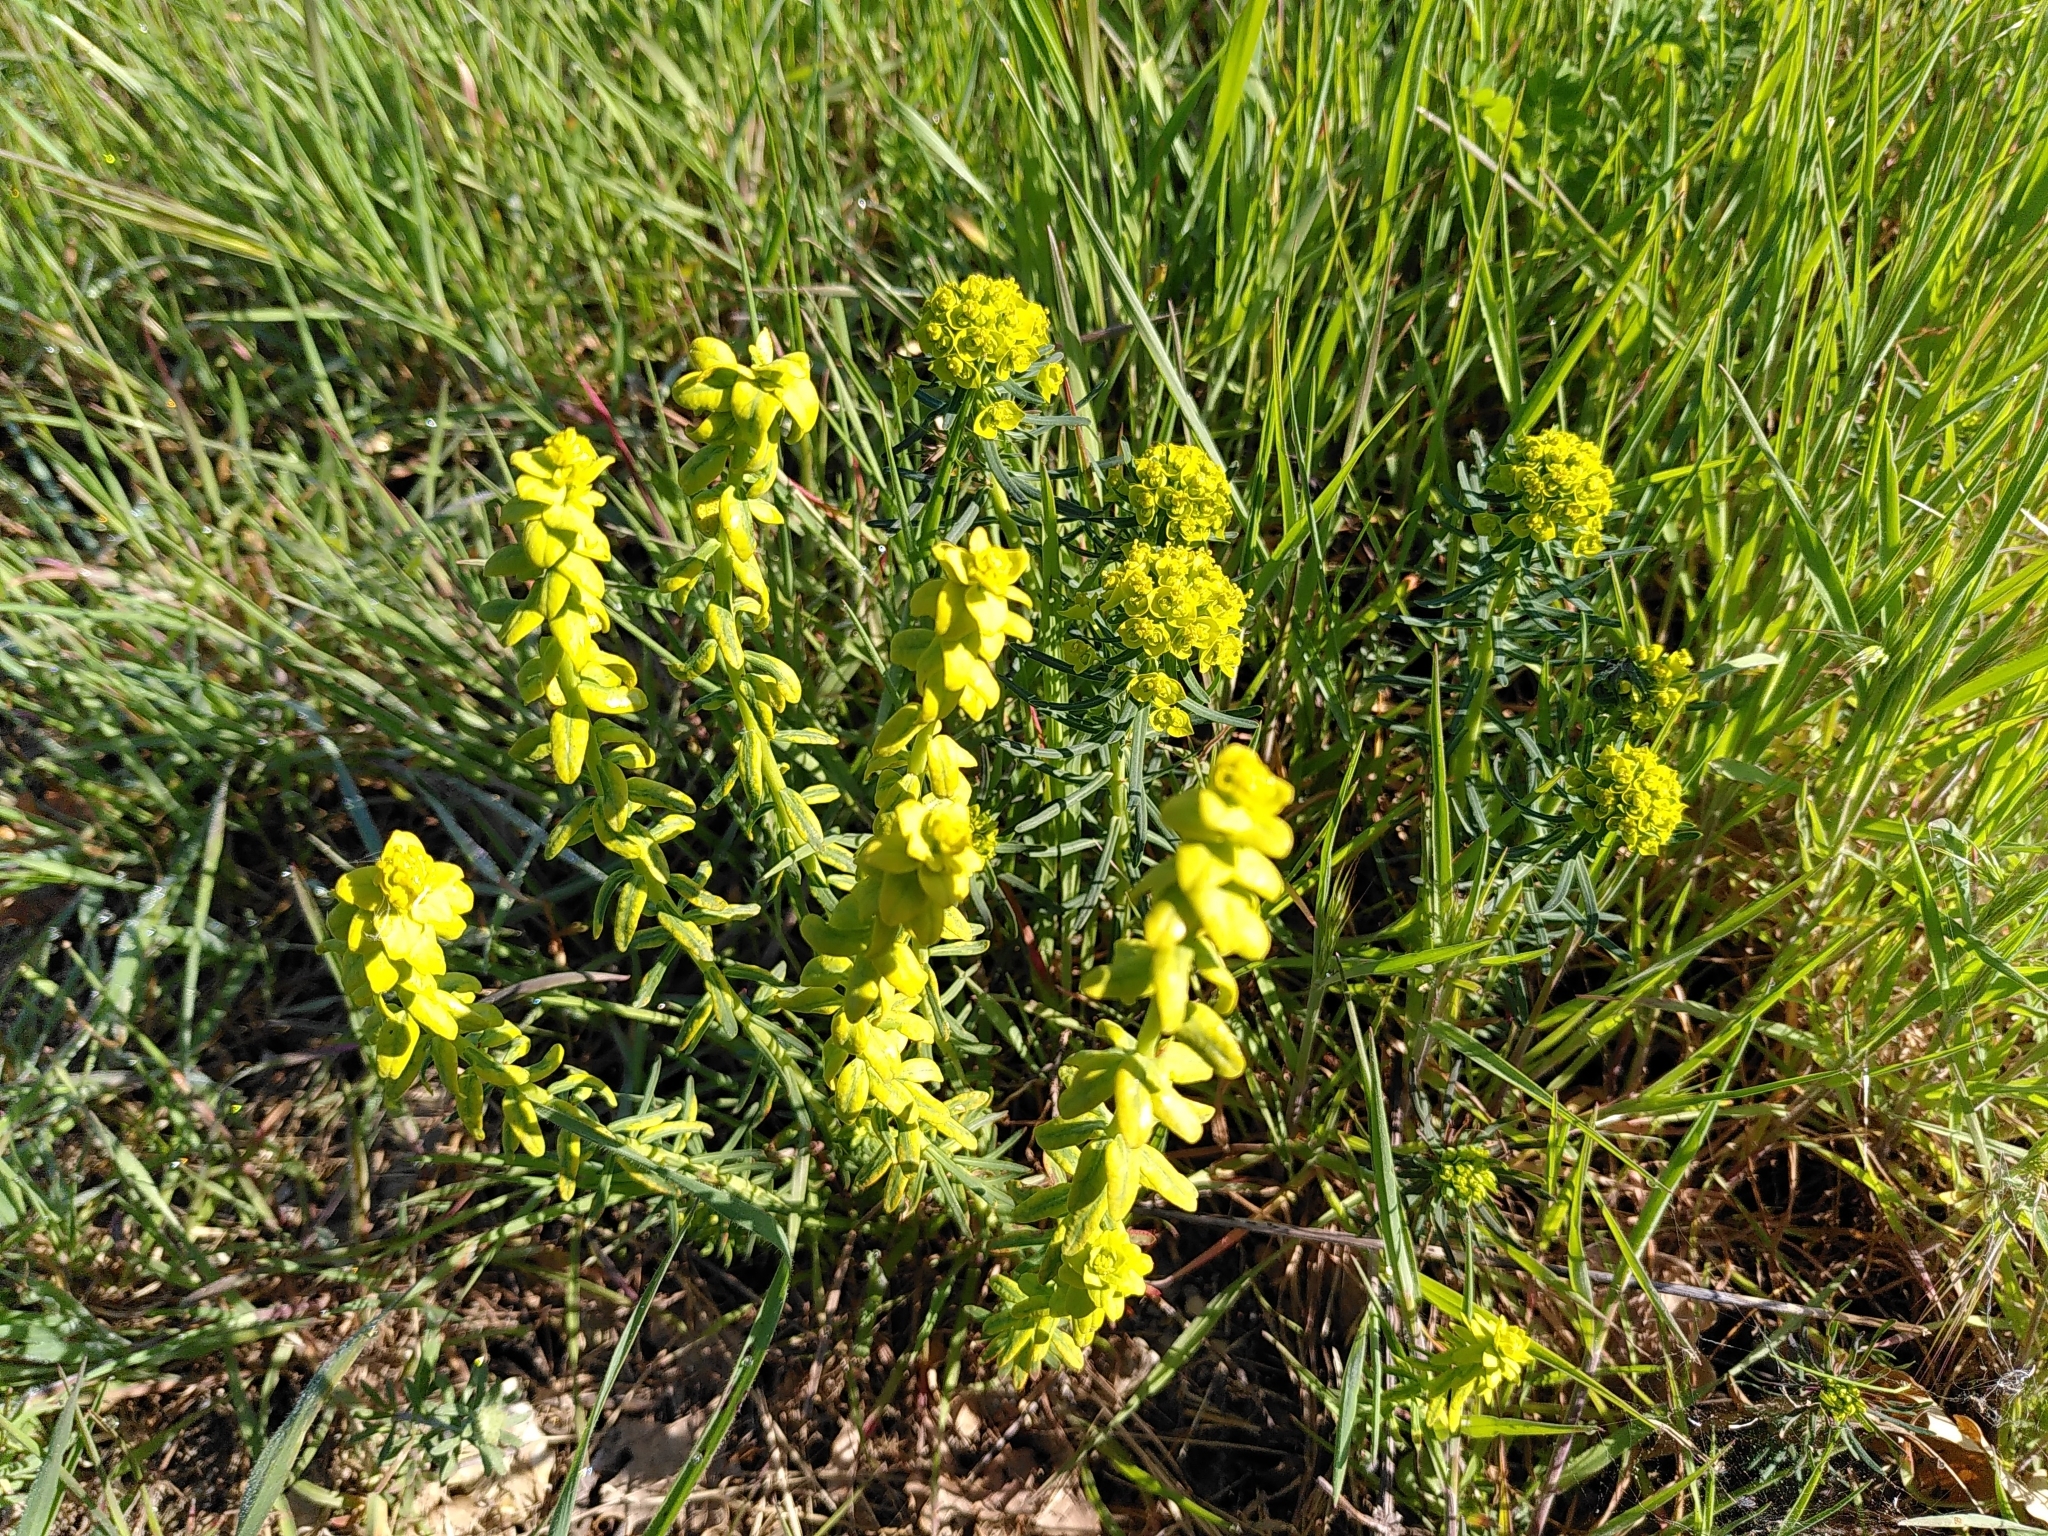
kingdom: Plantae
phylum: Tracheophyta
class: Magnoliopsida
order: Malpighiales
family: Euphorbiaceae
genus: Euphorbia
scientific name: Euphorbia cyparissias
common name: Cypress spurge
